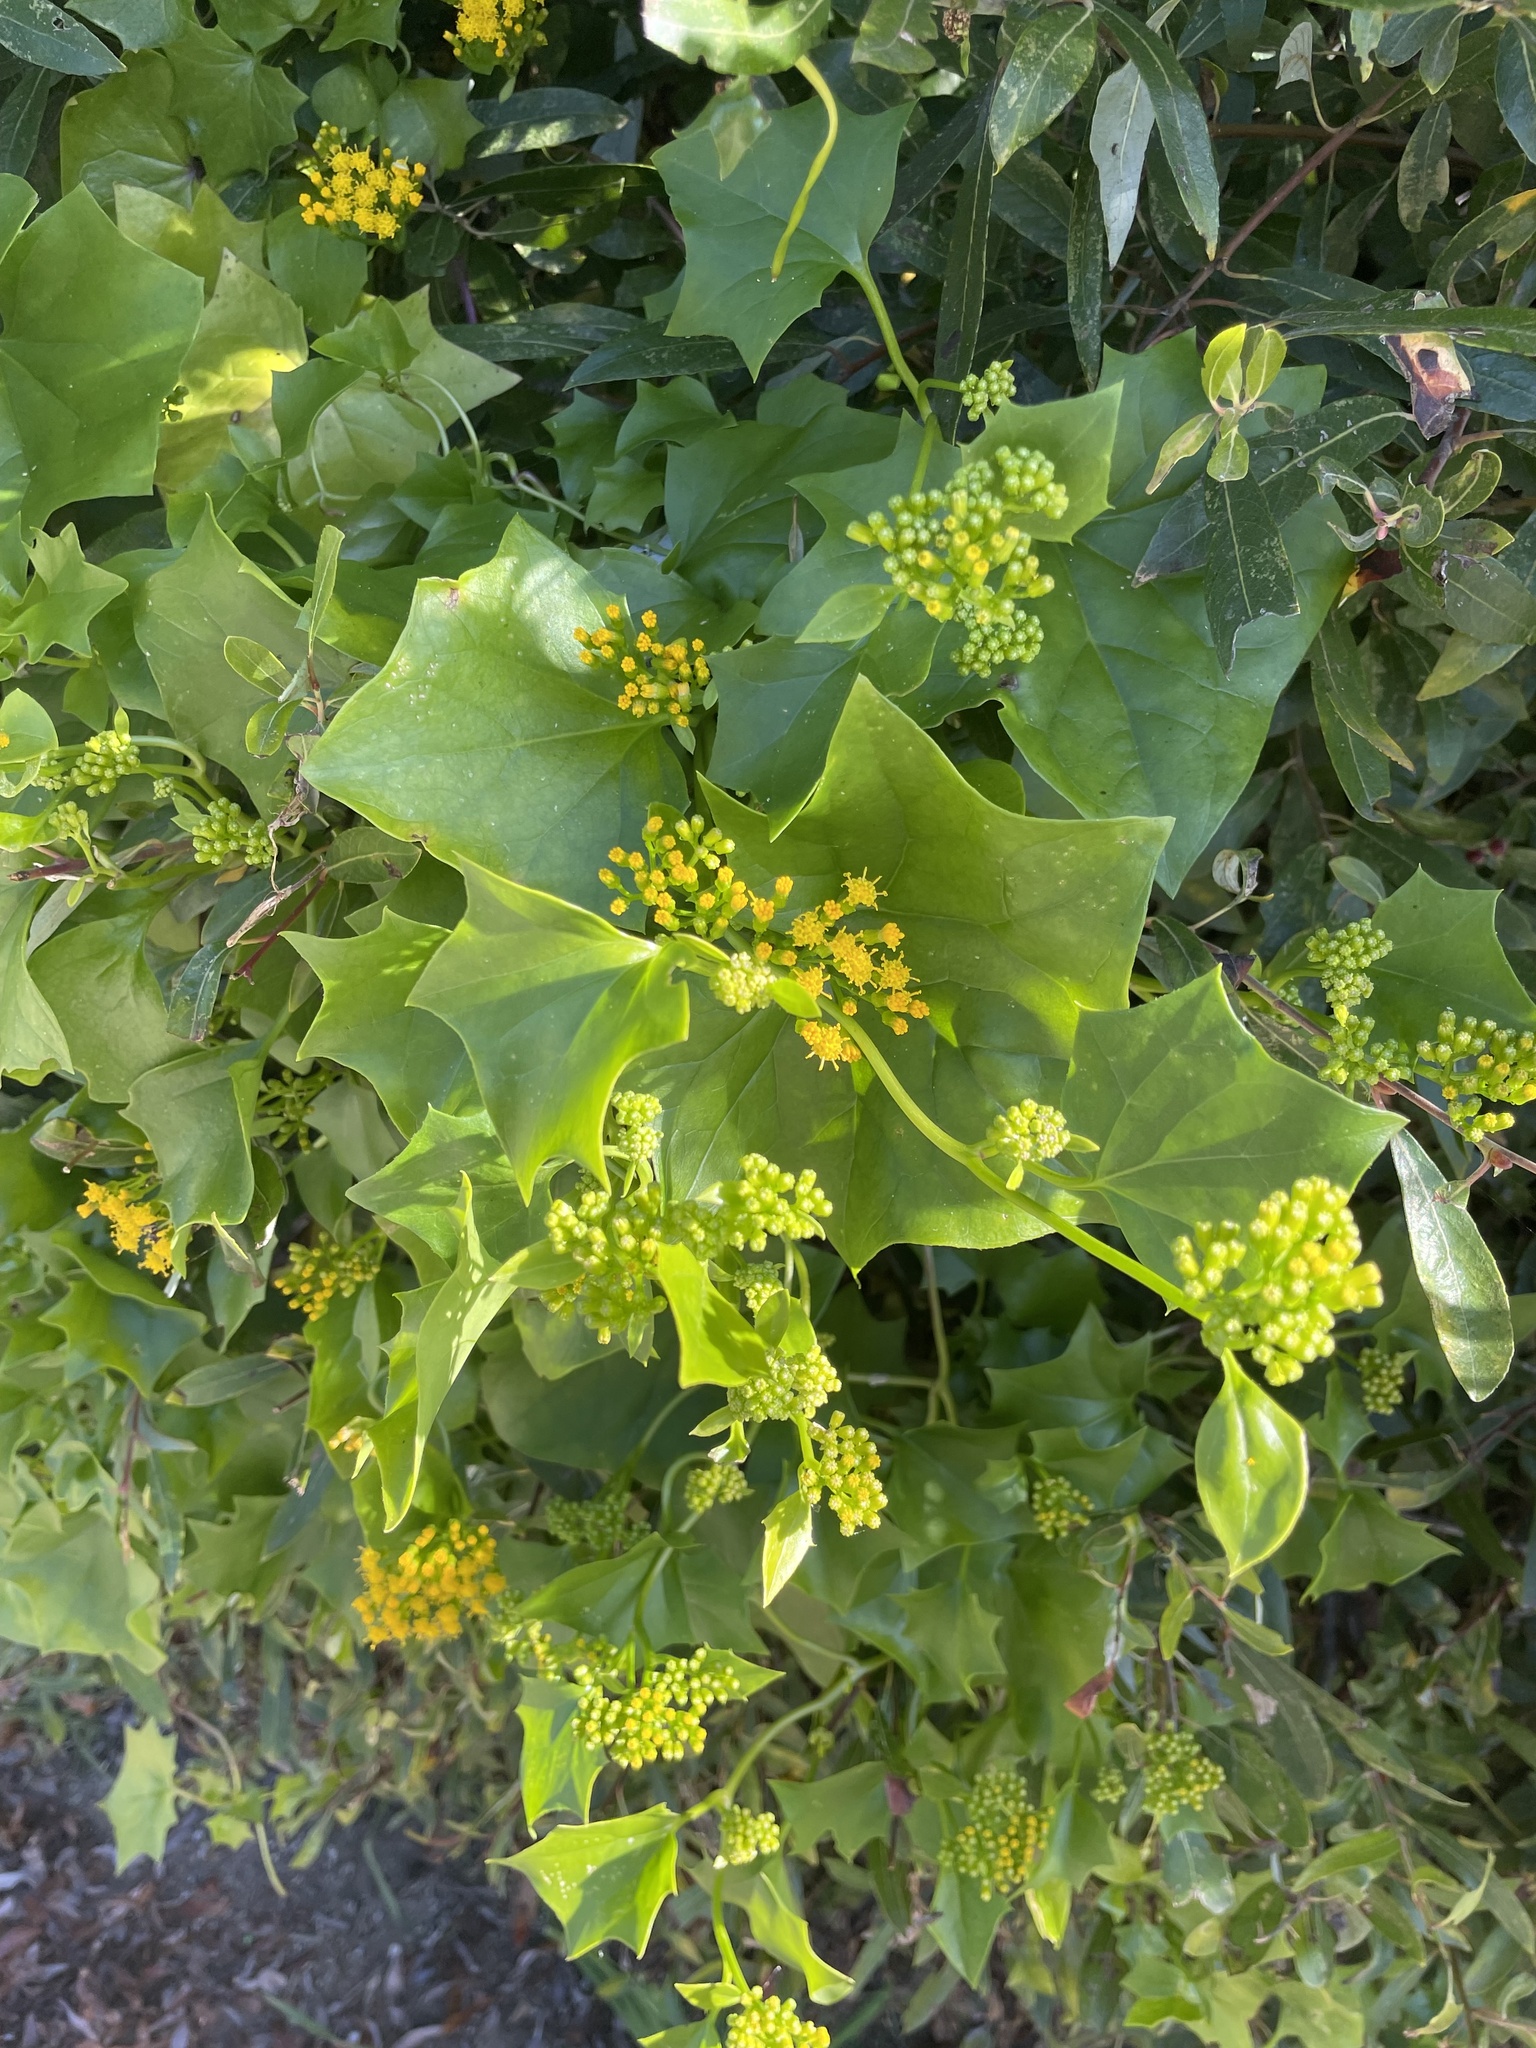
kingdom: Plantae
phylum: Tracheophyta
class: Magnoliopsida
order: Asterales
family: Asteraceae
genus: Delairea
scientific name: Delairea odorata
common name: Cape-ivy
